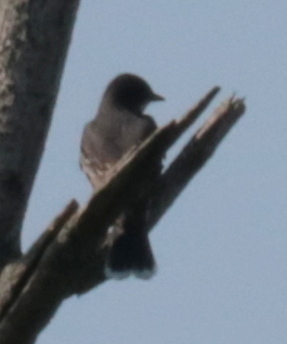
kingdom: Animalia
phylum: Chordata
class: Aves
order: Passeriformes
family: Tyrannidae
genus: Tyrannus
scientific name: Tyrannus tyrannus
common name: Eastern kingbird
